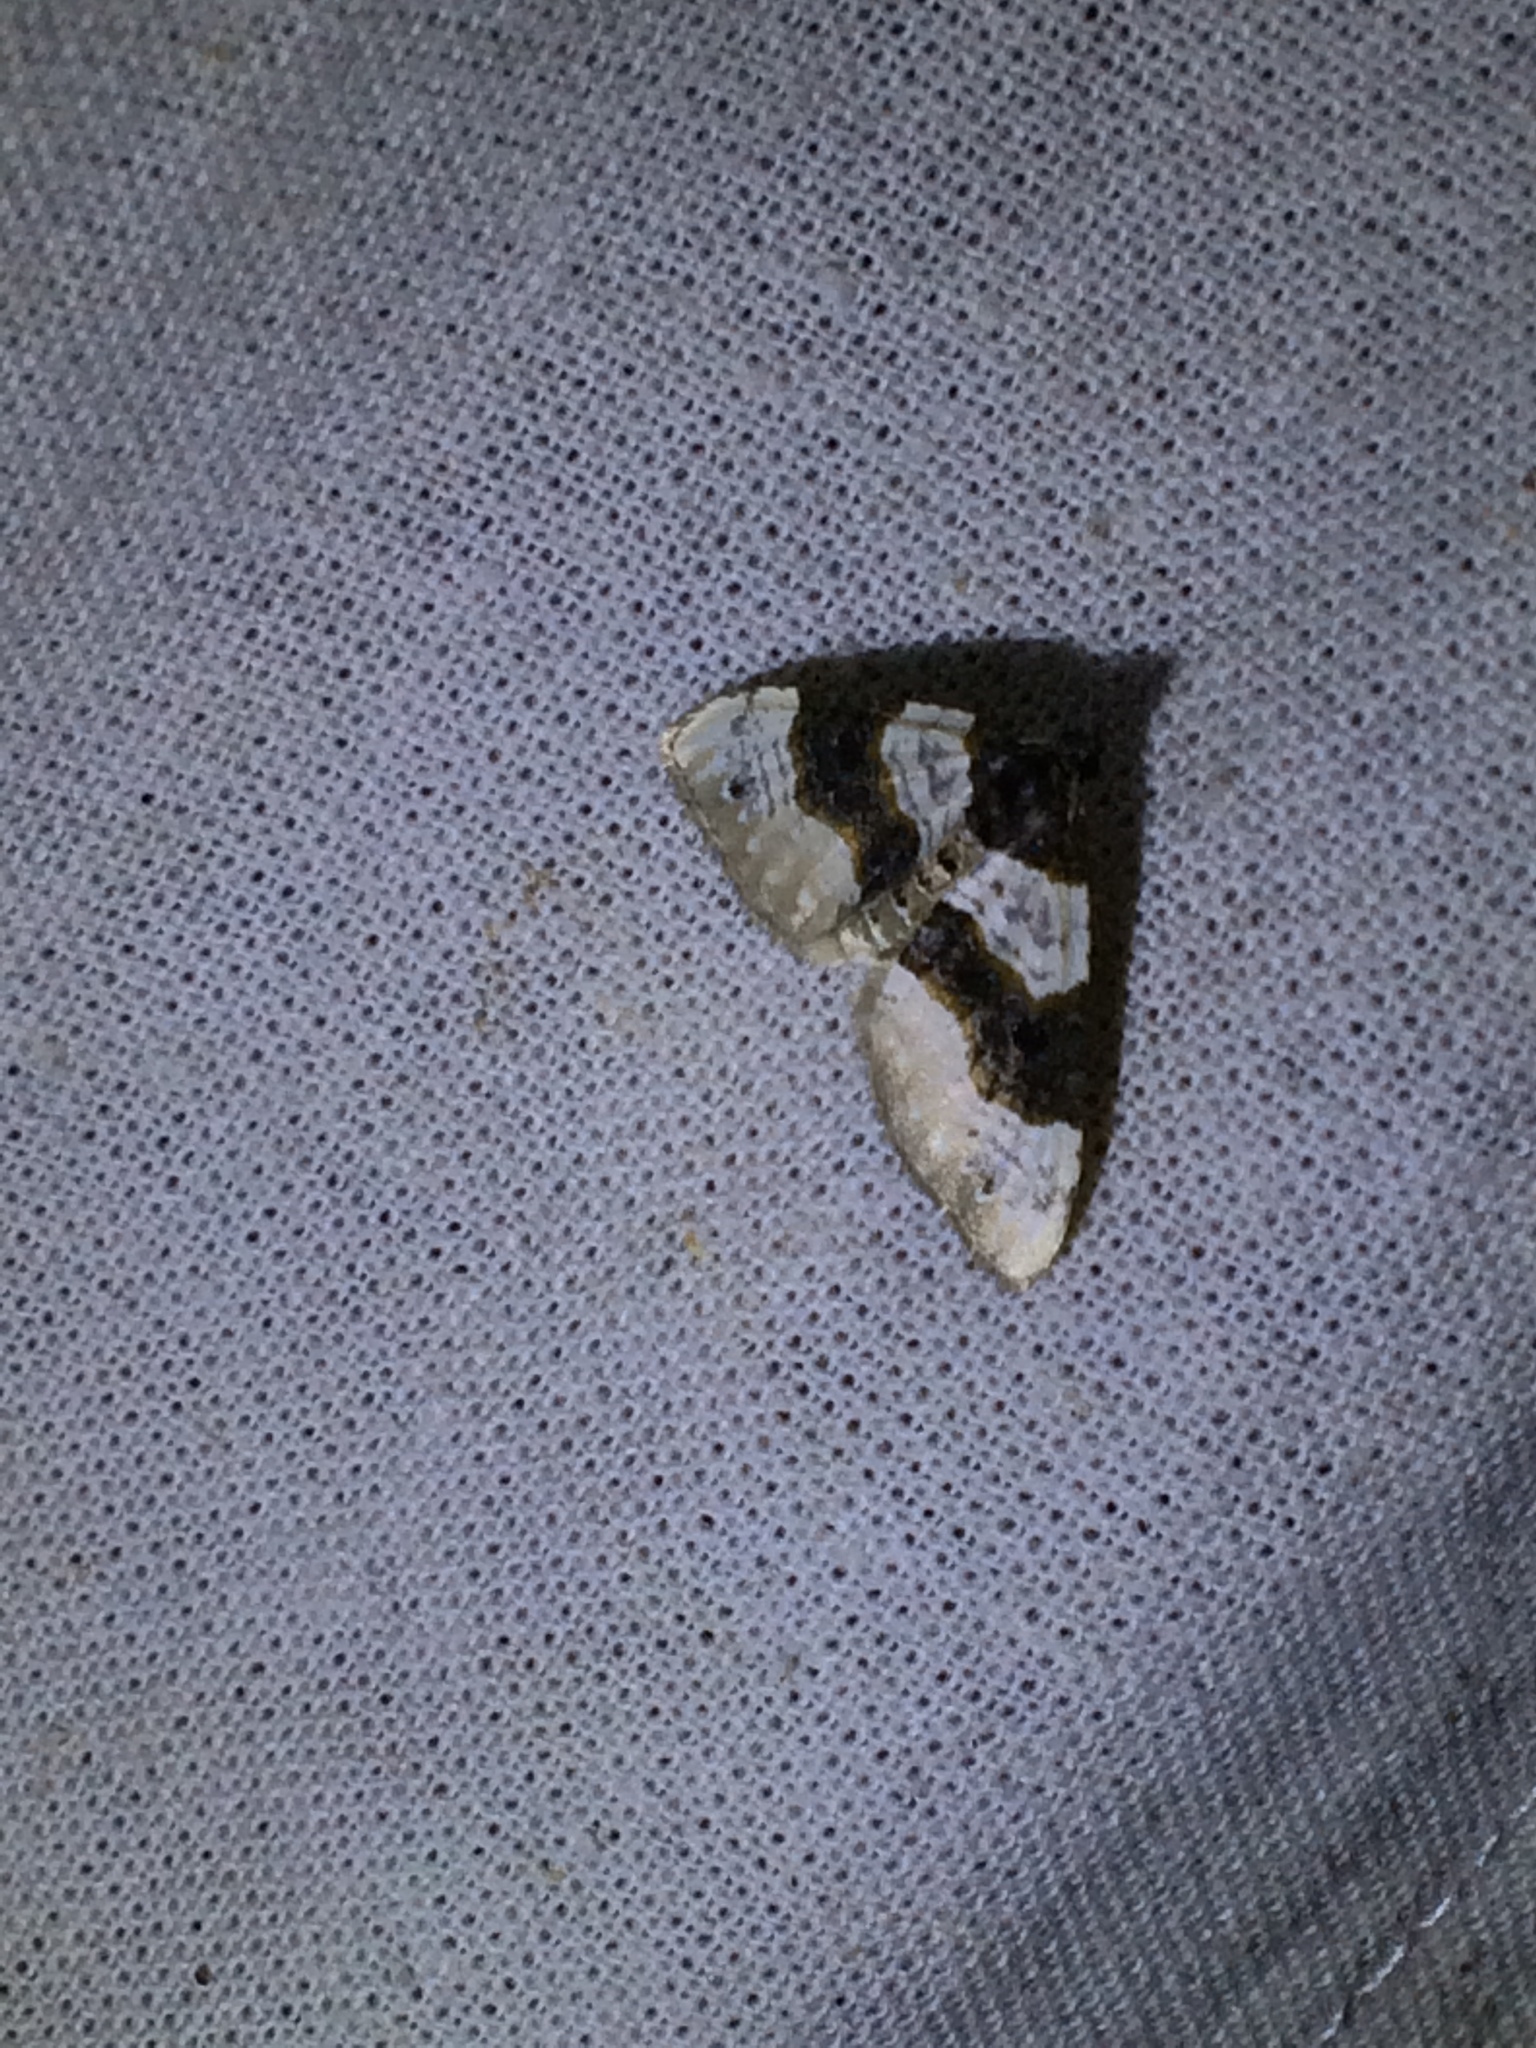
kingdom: Animalia
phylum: Arthropoda
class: Insecta
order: Lepidoptera
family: Geometridae
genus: Cosmorhoe
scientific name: Cosmorhoe ocellata
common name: Purple bar
